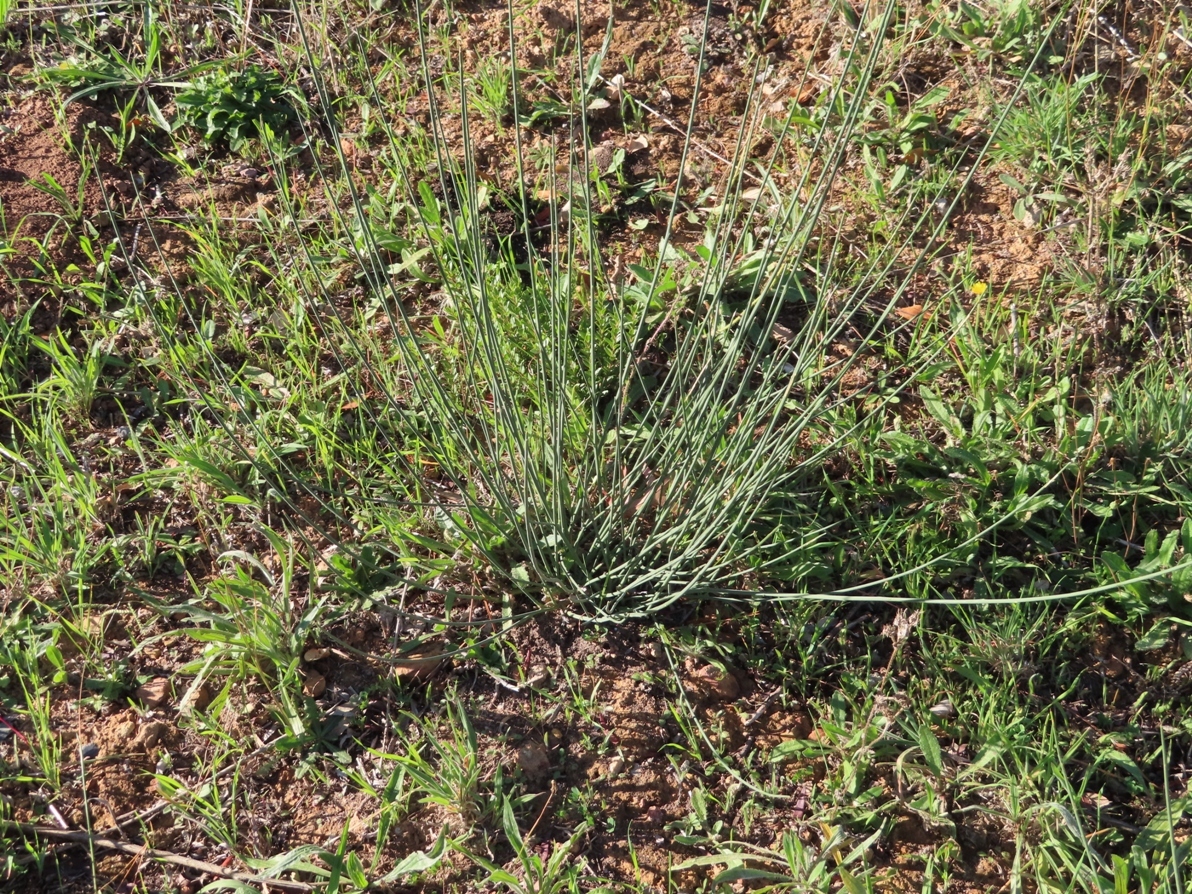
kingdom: Plantae
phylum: Tracheophyta
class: Magnoliopsida
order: Fabales
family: Fabaceae
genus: Spartium
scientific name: Spartium junceum
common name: Spanish broom
